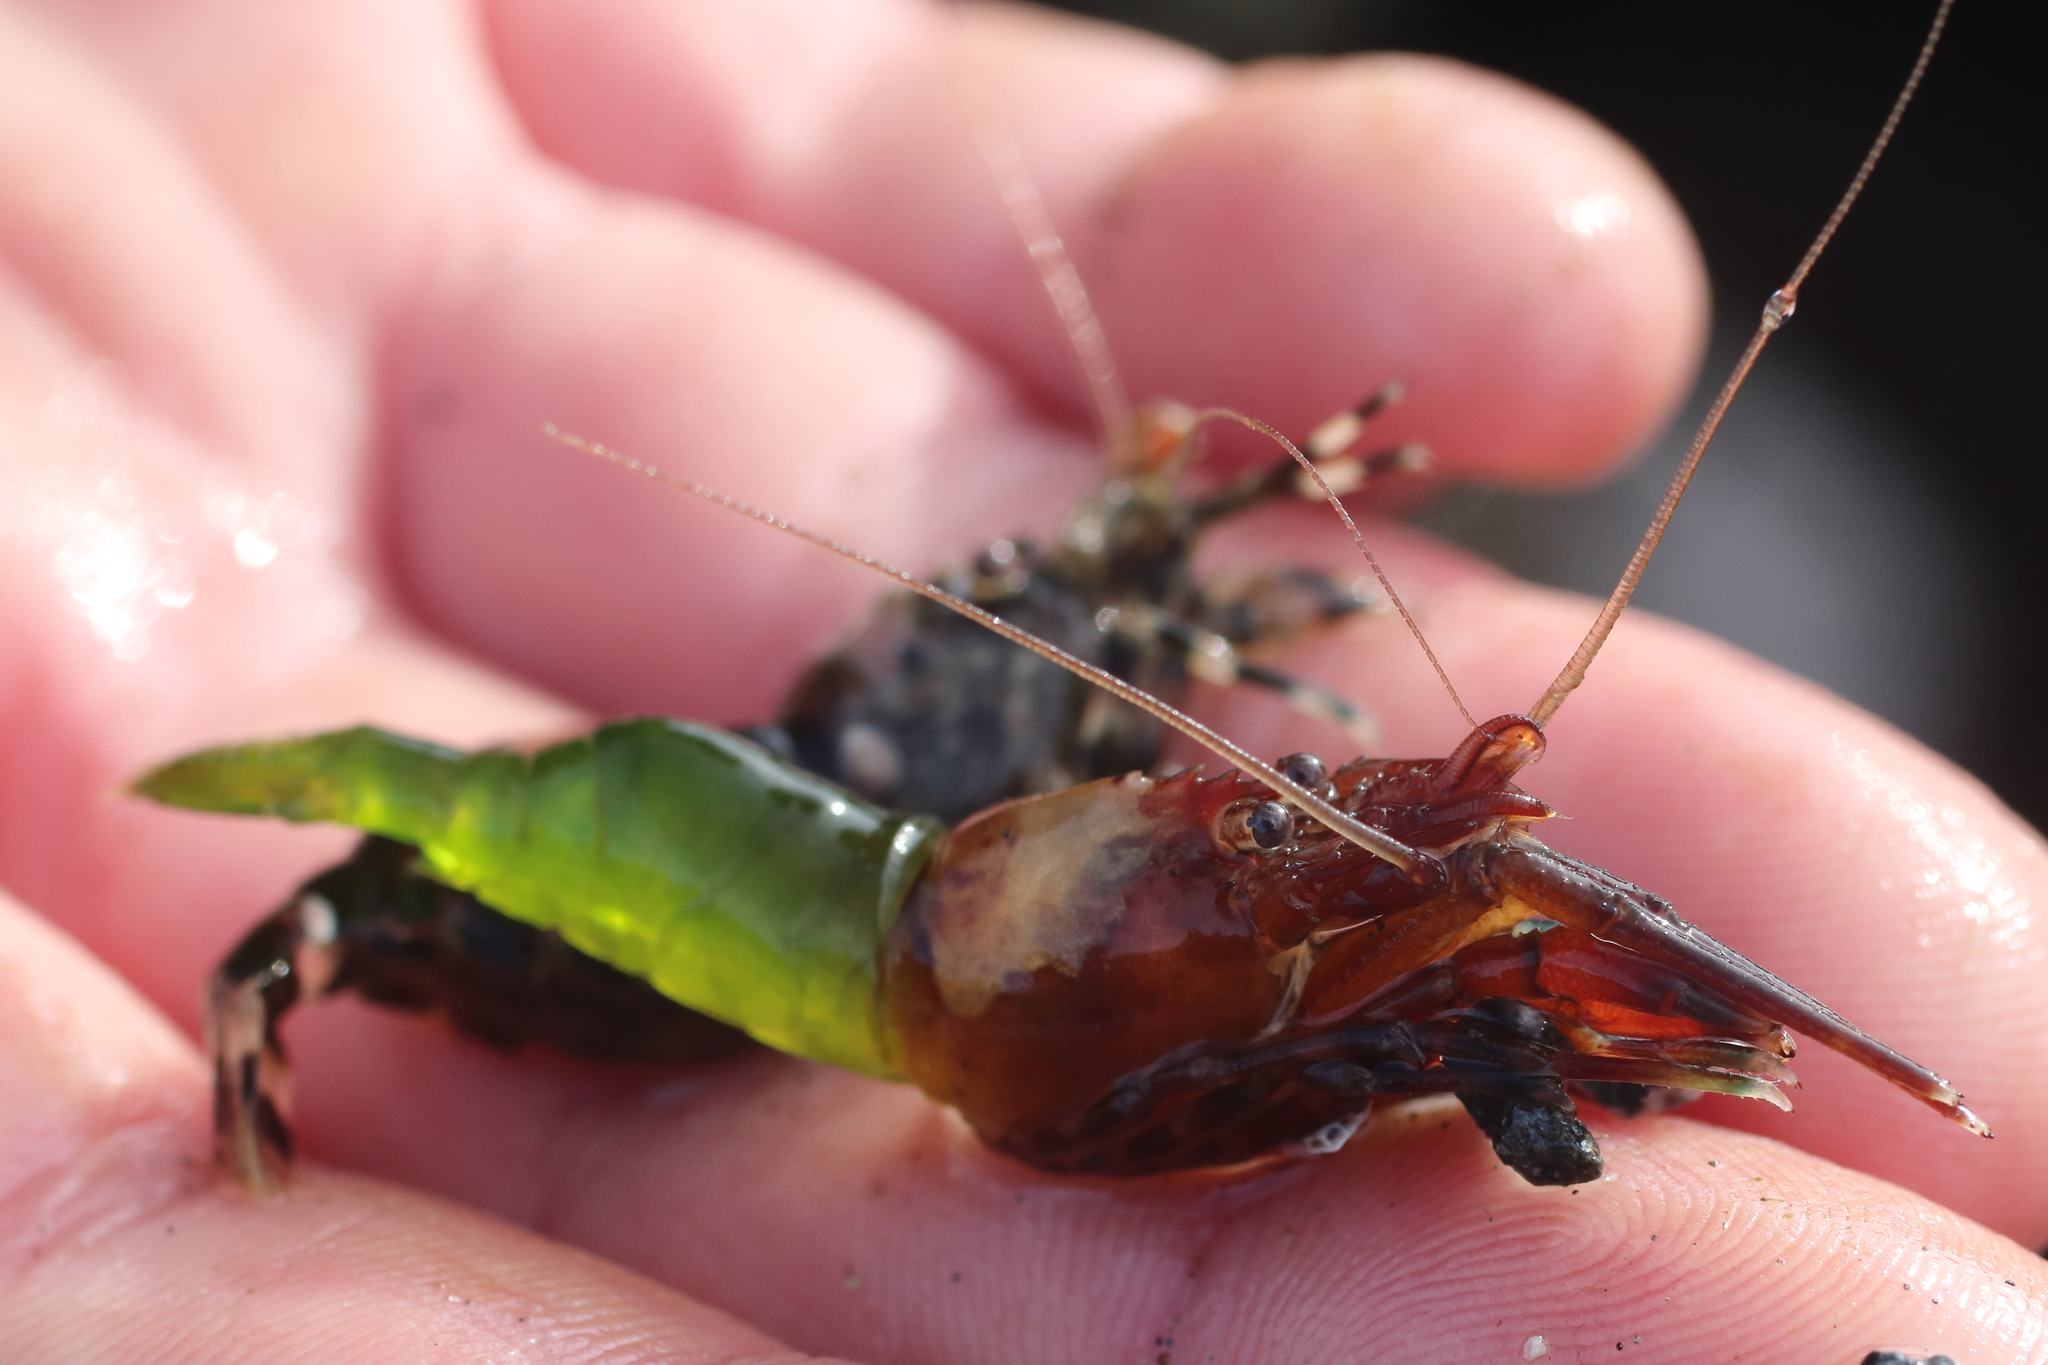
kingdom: Animalia
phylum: Arthropoda
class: Malacostraca
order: Decapoda
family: Thoridae
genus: Heptacarpus
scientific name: Heptacarpus brevirostris
